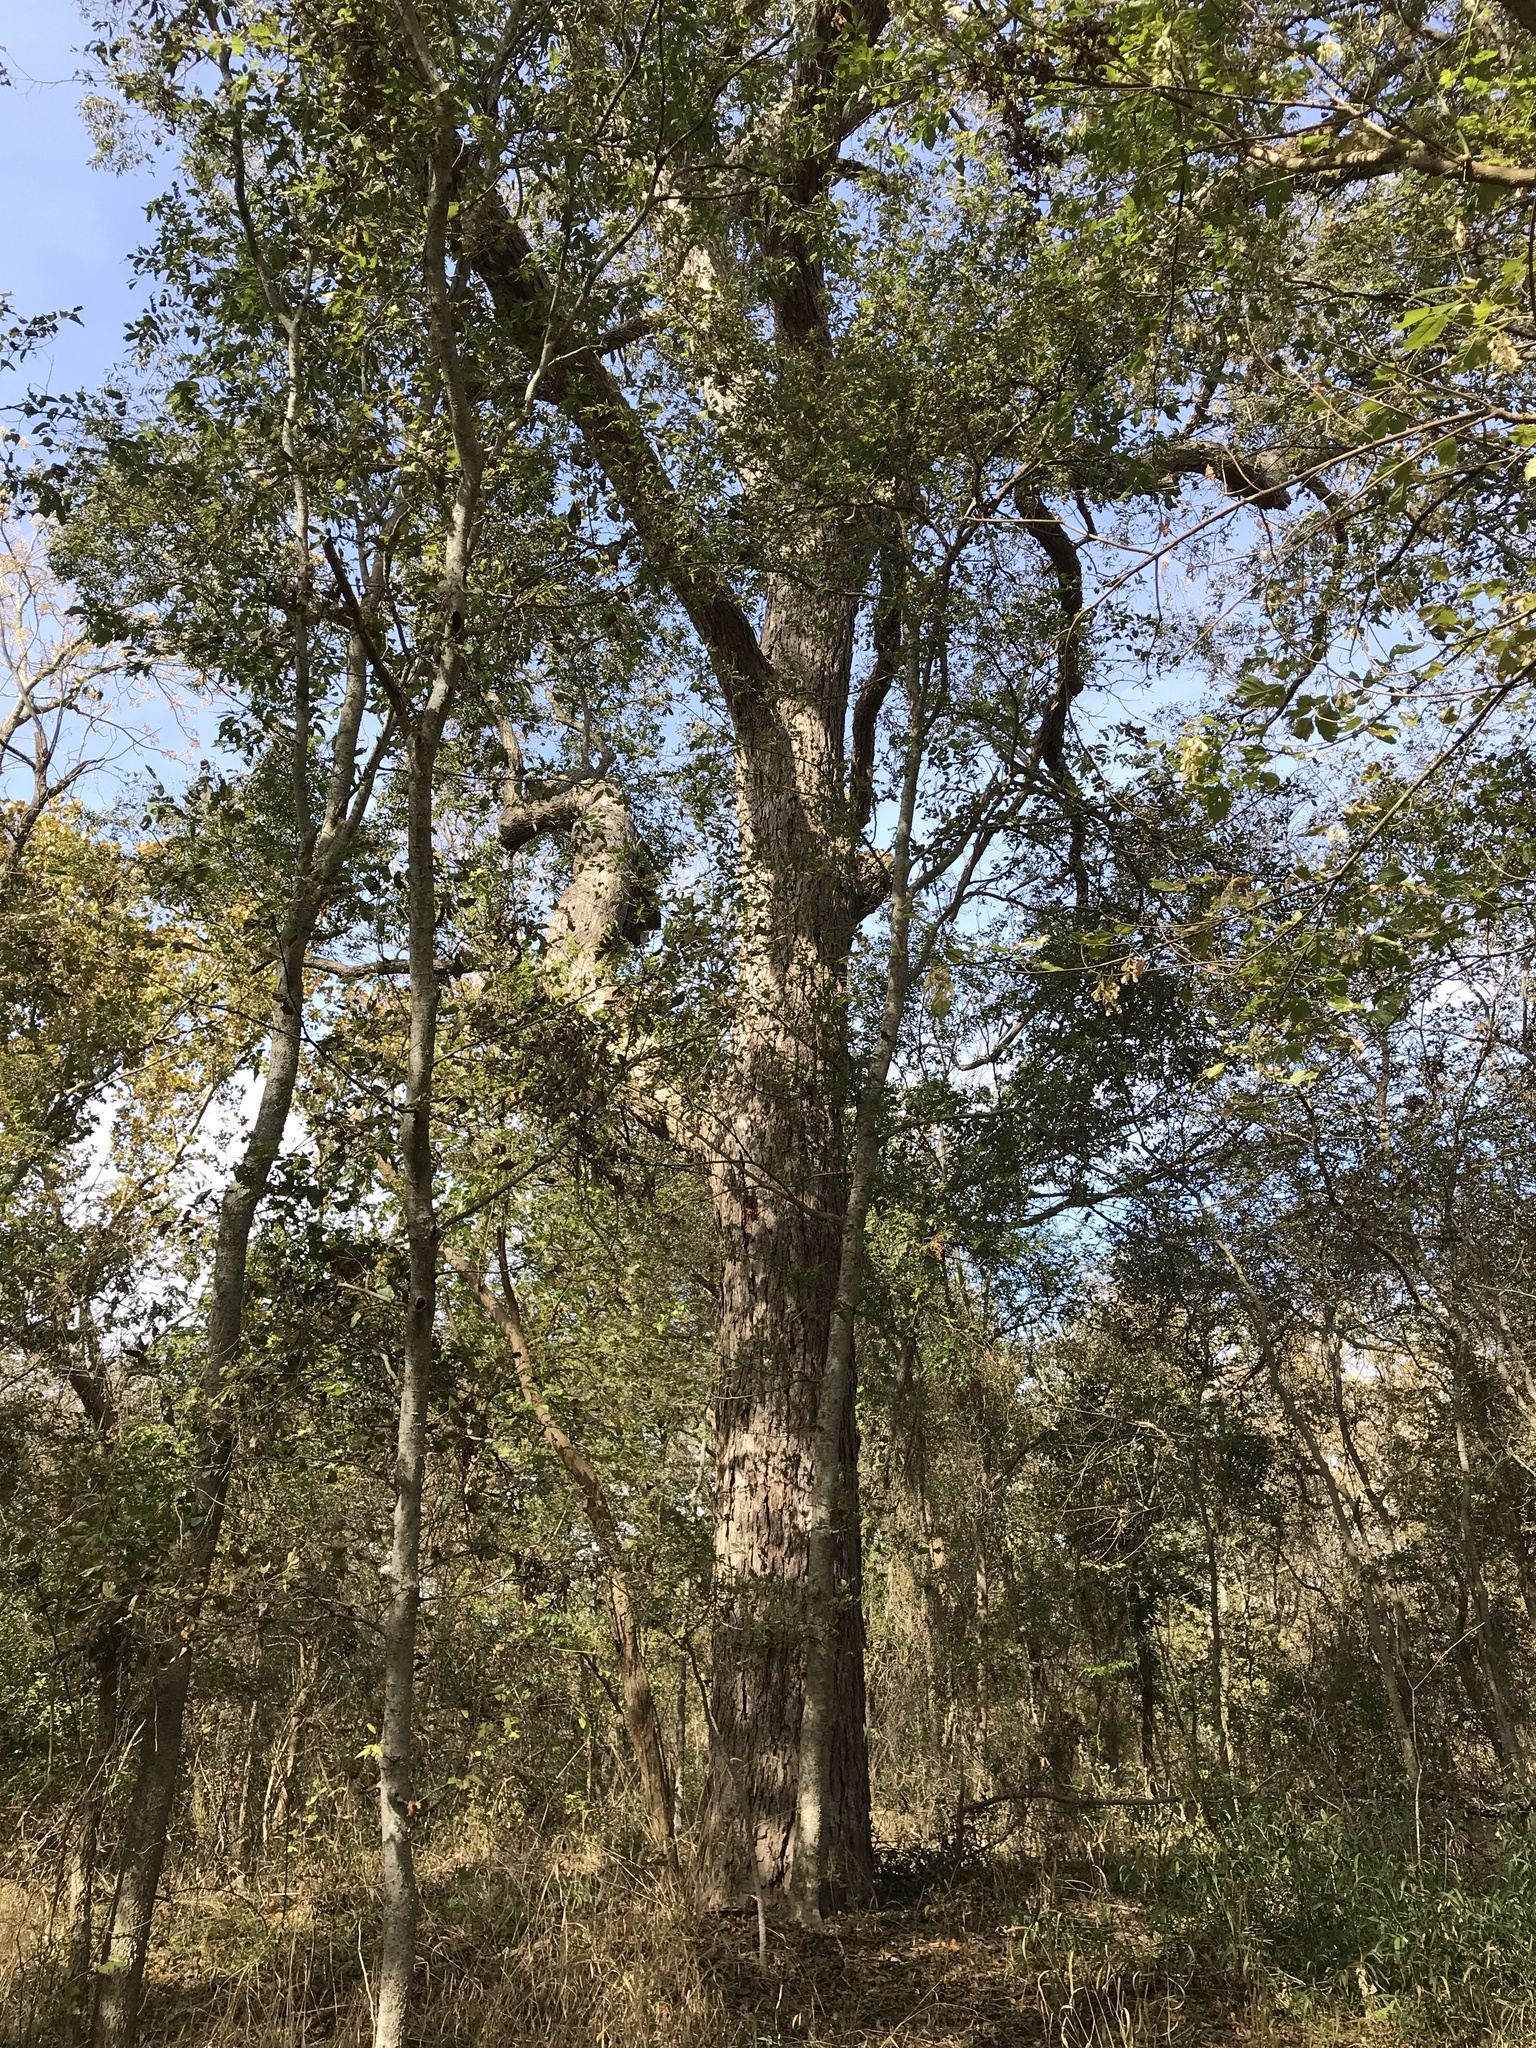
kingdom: Plantae
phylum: Tracheophyta
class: Magnoliopsida
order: Fagales
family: Juglandaceae
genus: Carya
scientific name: Carya illinoinensis
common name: Pecan
